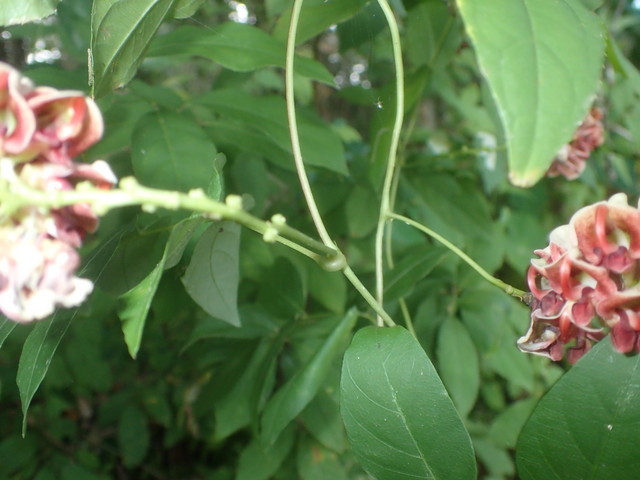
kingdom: Plantae
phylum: Tracheophyta
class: Magnoliopsida
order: Fabales
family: Fabaceae
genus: Apios
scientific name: Apios americana
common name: American potato-bean
